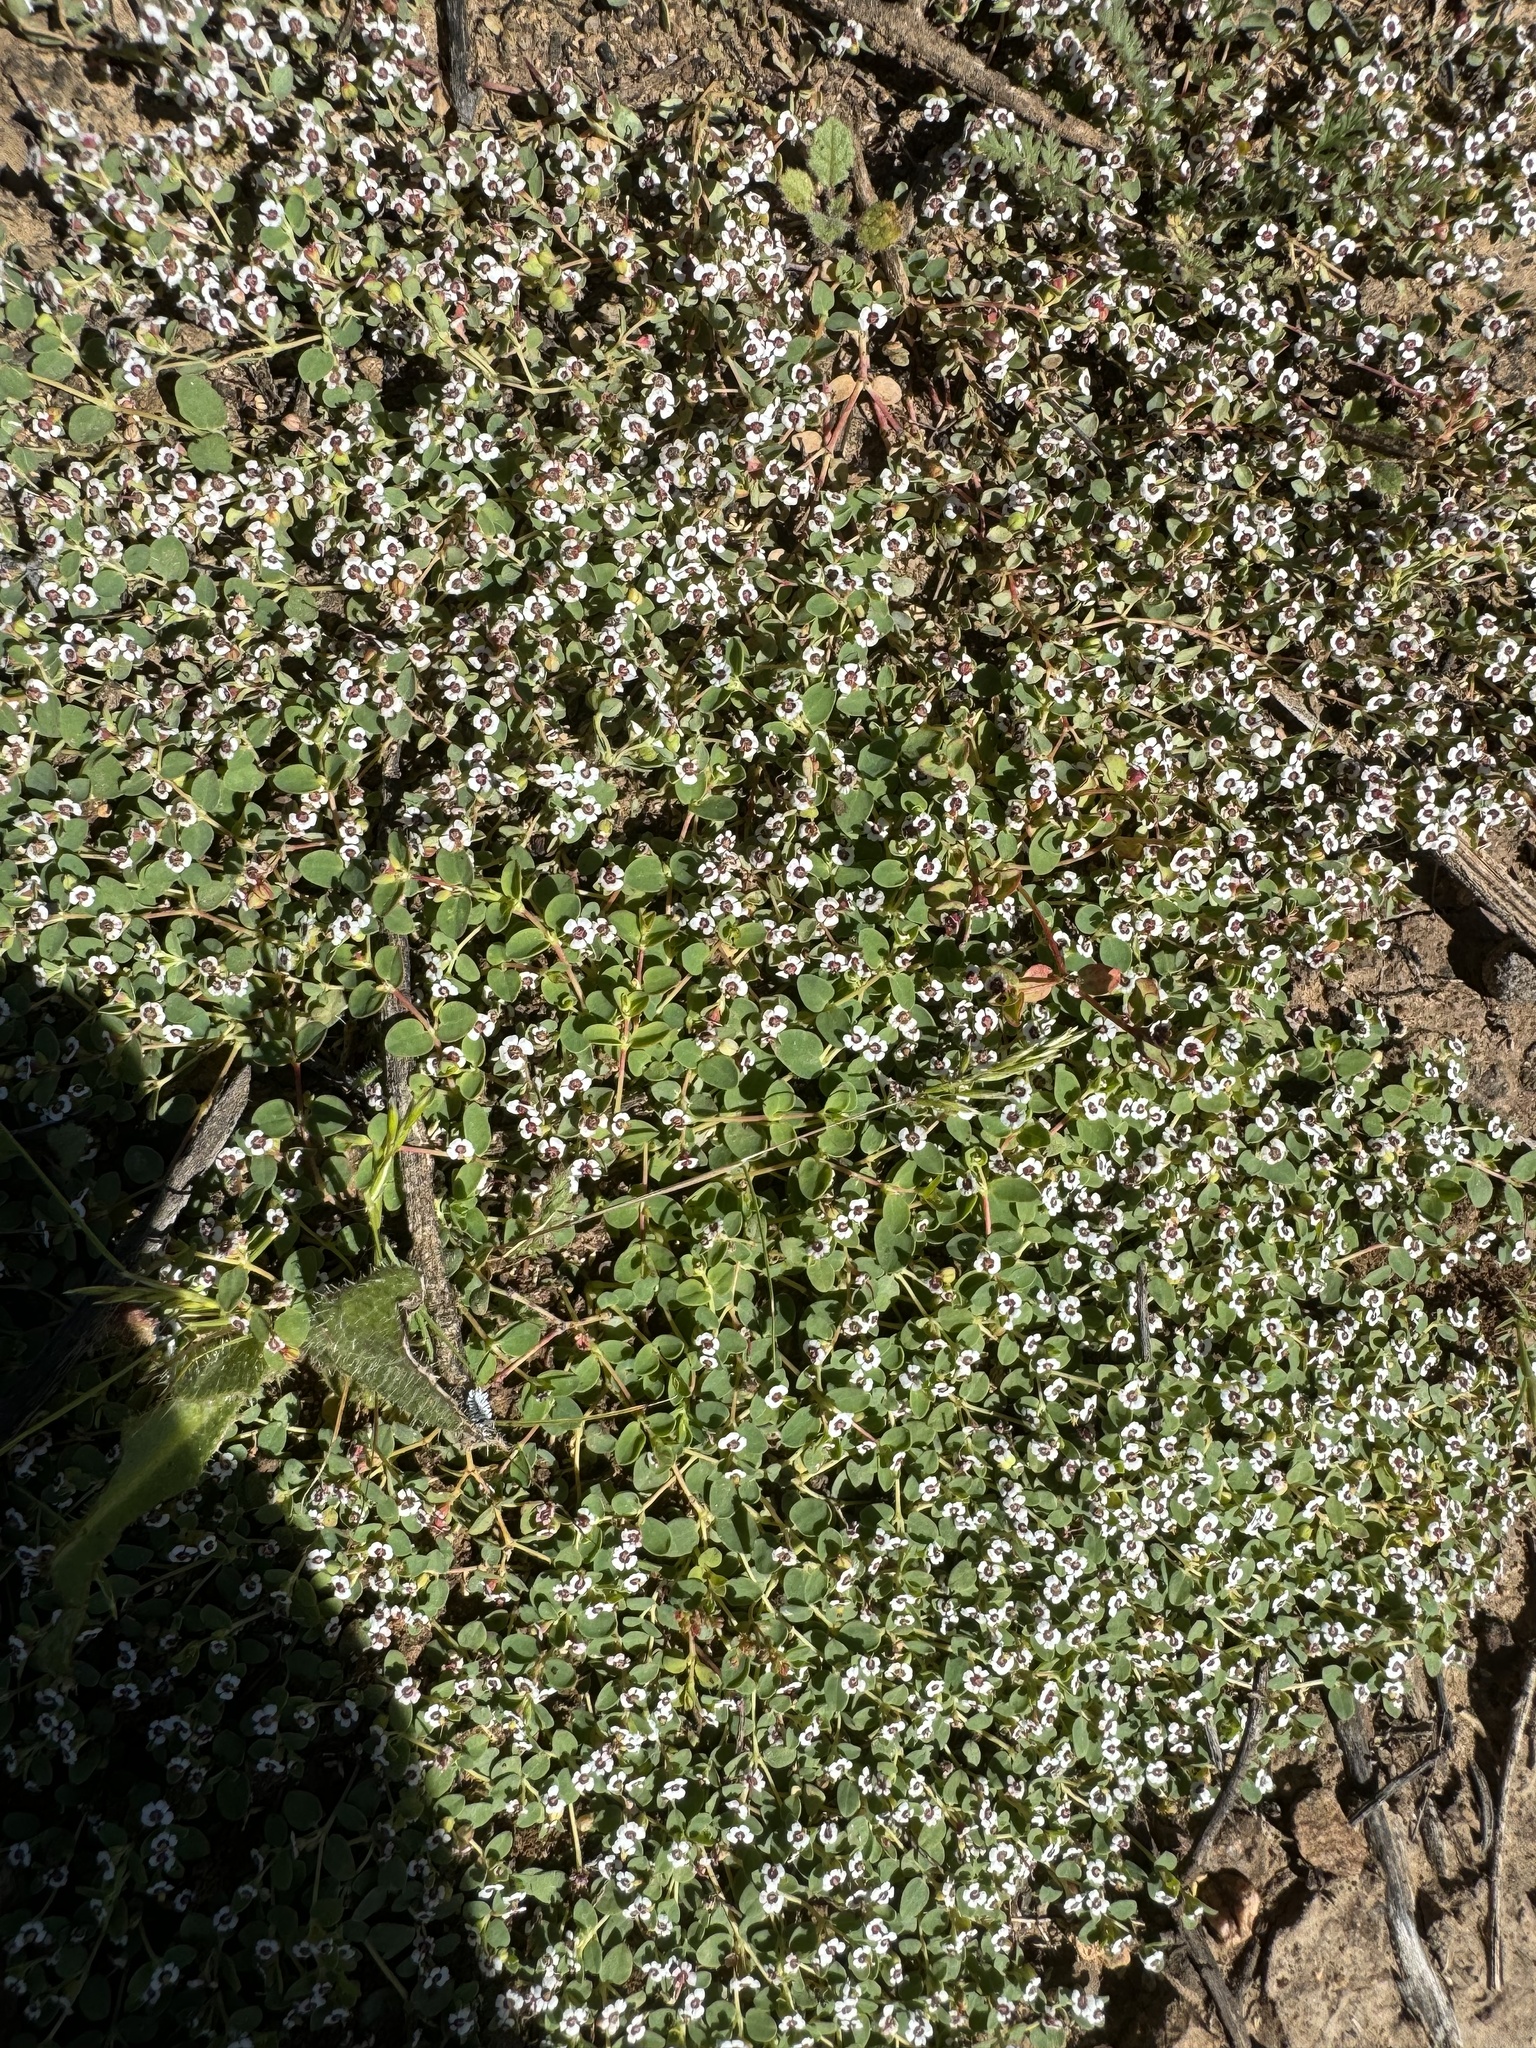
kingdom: Plantae
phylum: Tracheophyta
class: Magnoliopsida
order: Malpighiales
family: Euphorbiaceae
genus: Euphorbia
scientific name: Euphorbia polycarpa
